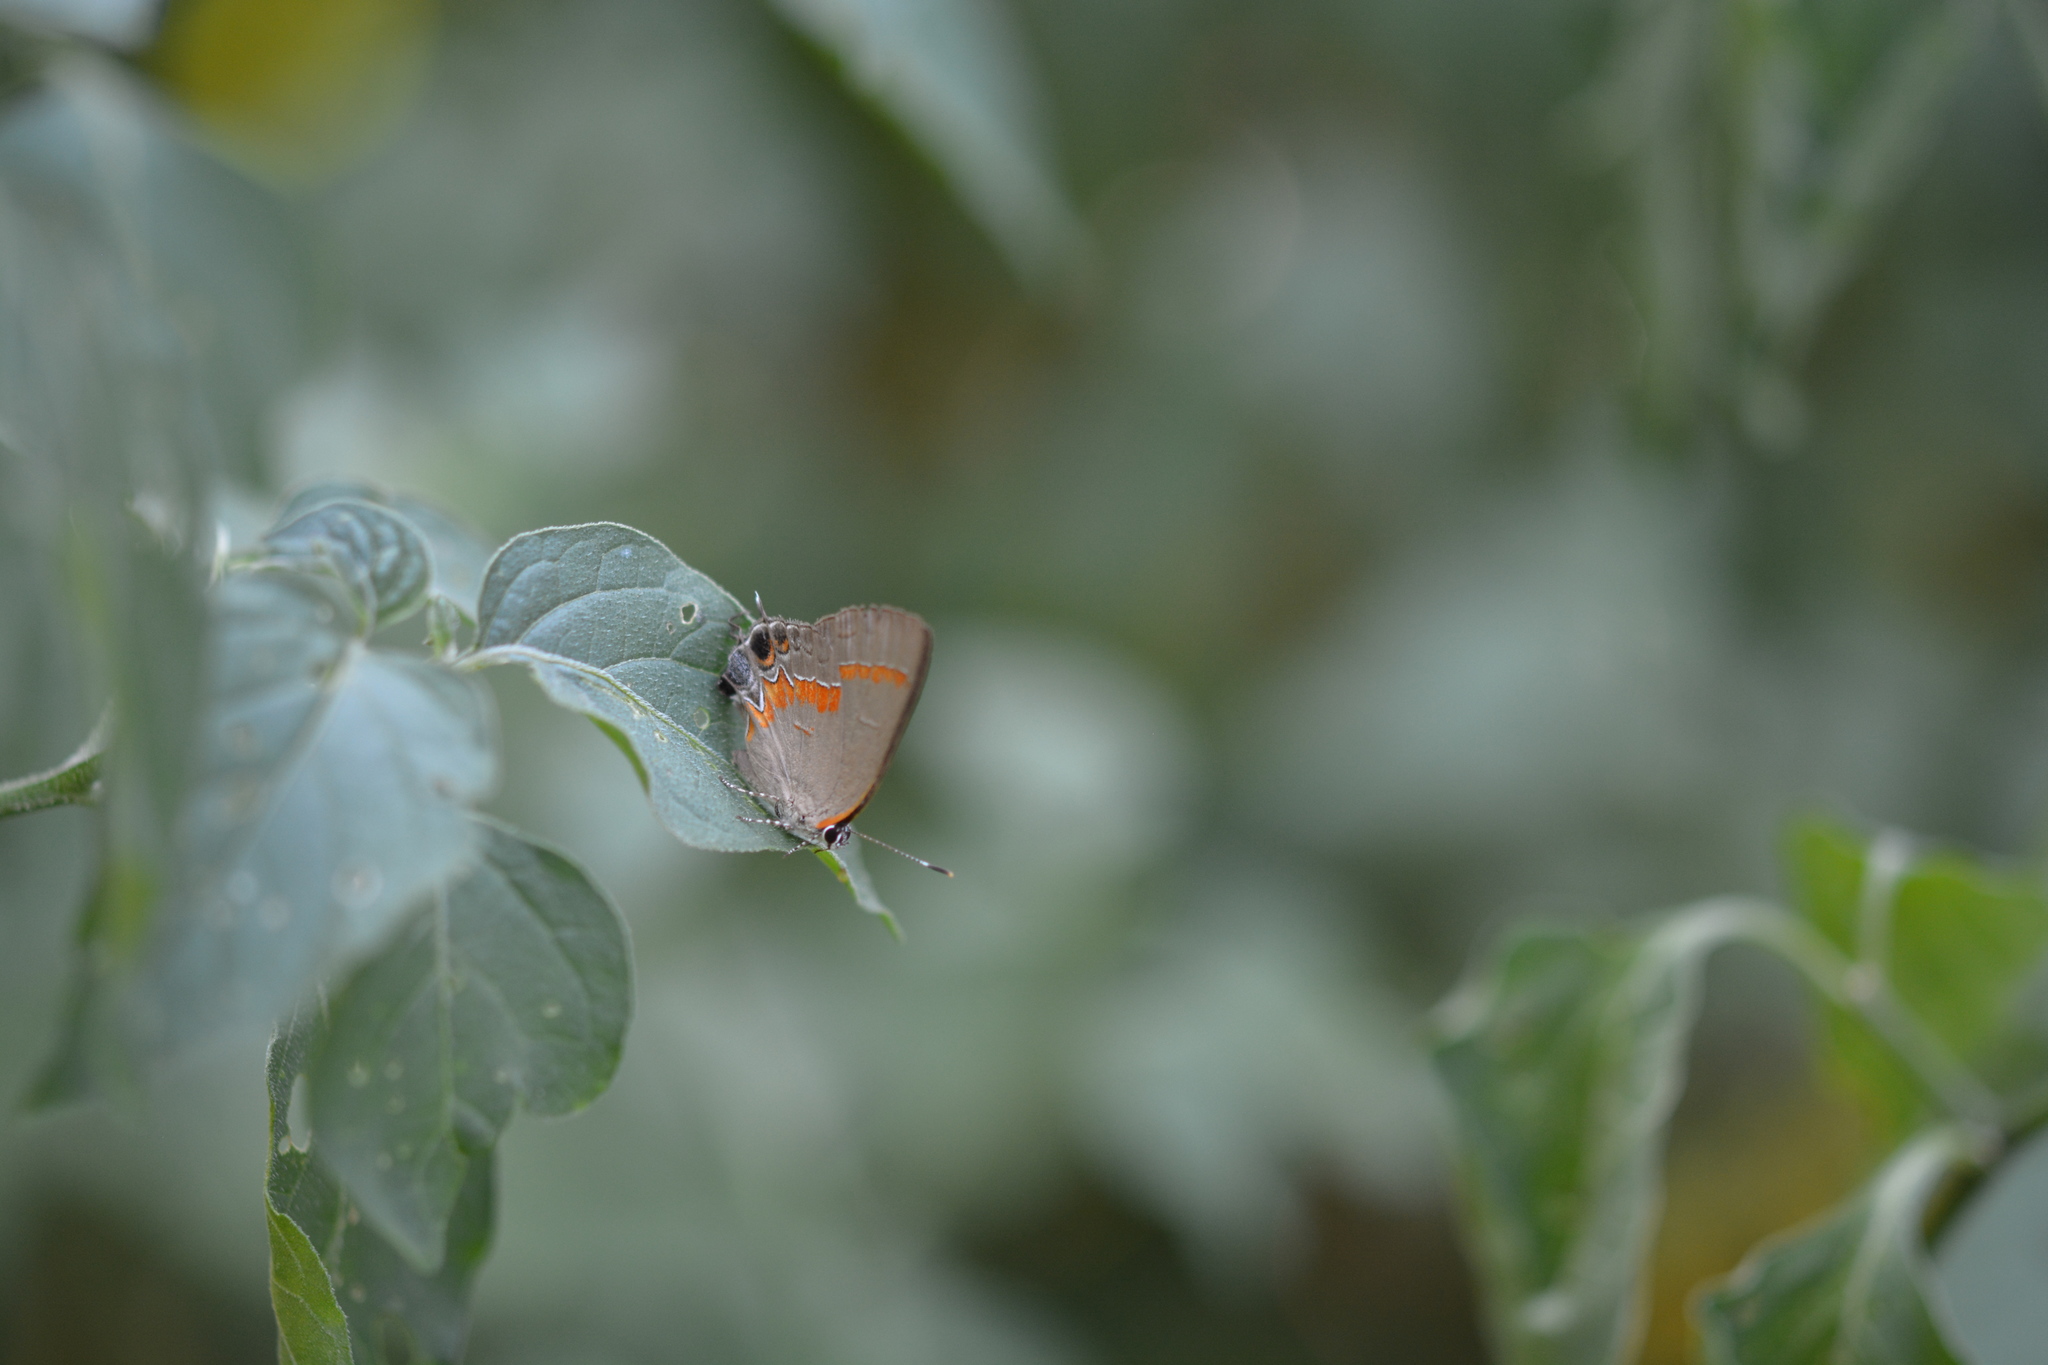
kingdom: Animalia
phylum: Arthropoda
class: Insecta
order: Lepidoptera
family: Lycaenidae
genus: Calycopis
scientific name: Calycopis cecrops
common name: Red-banded hairstreak
